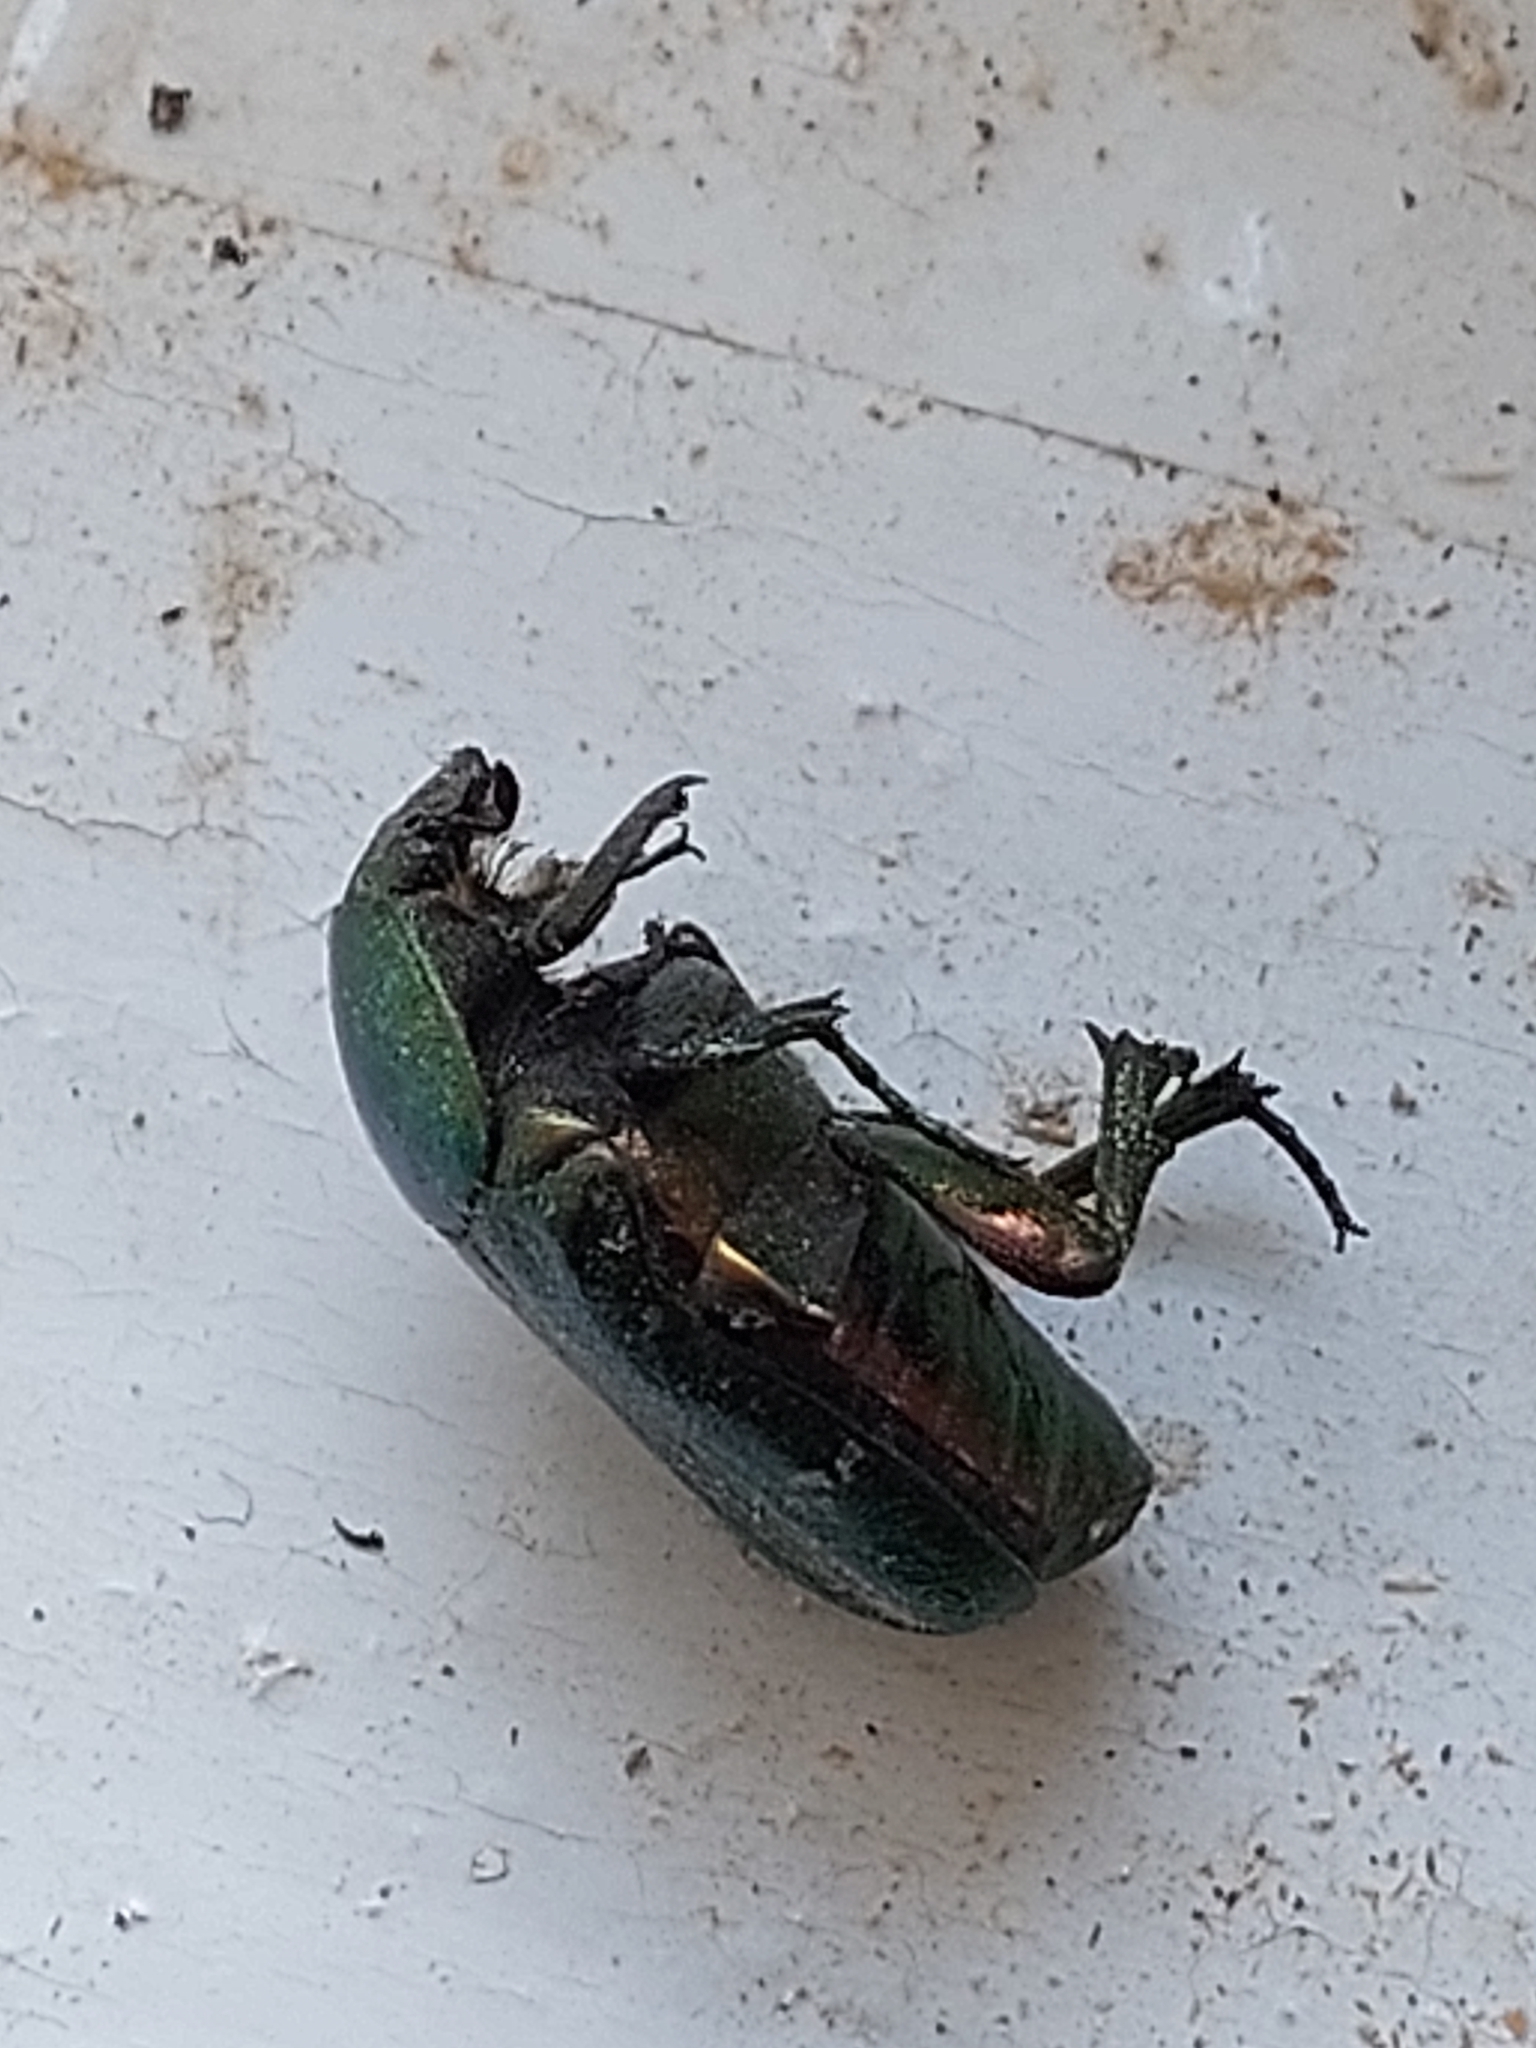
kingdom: Animalia
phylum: Arthropoda
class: Insecta
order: Coleoptera
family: Scarabaeidae
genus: Cetonia
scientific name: Cetonia aurata
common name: Rose chafer
